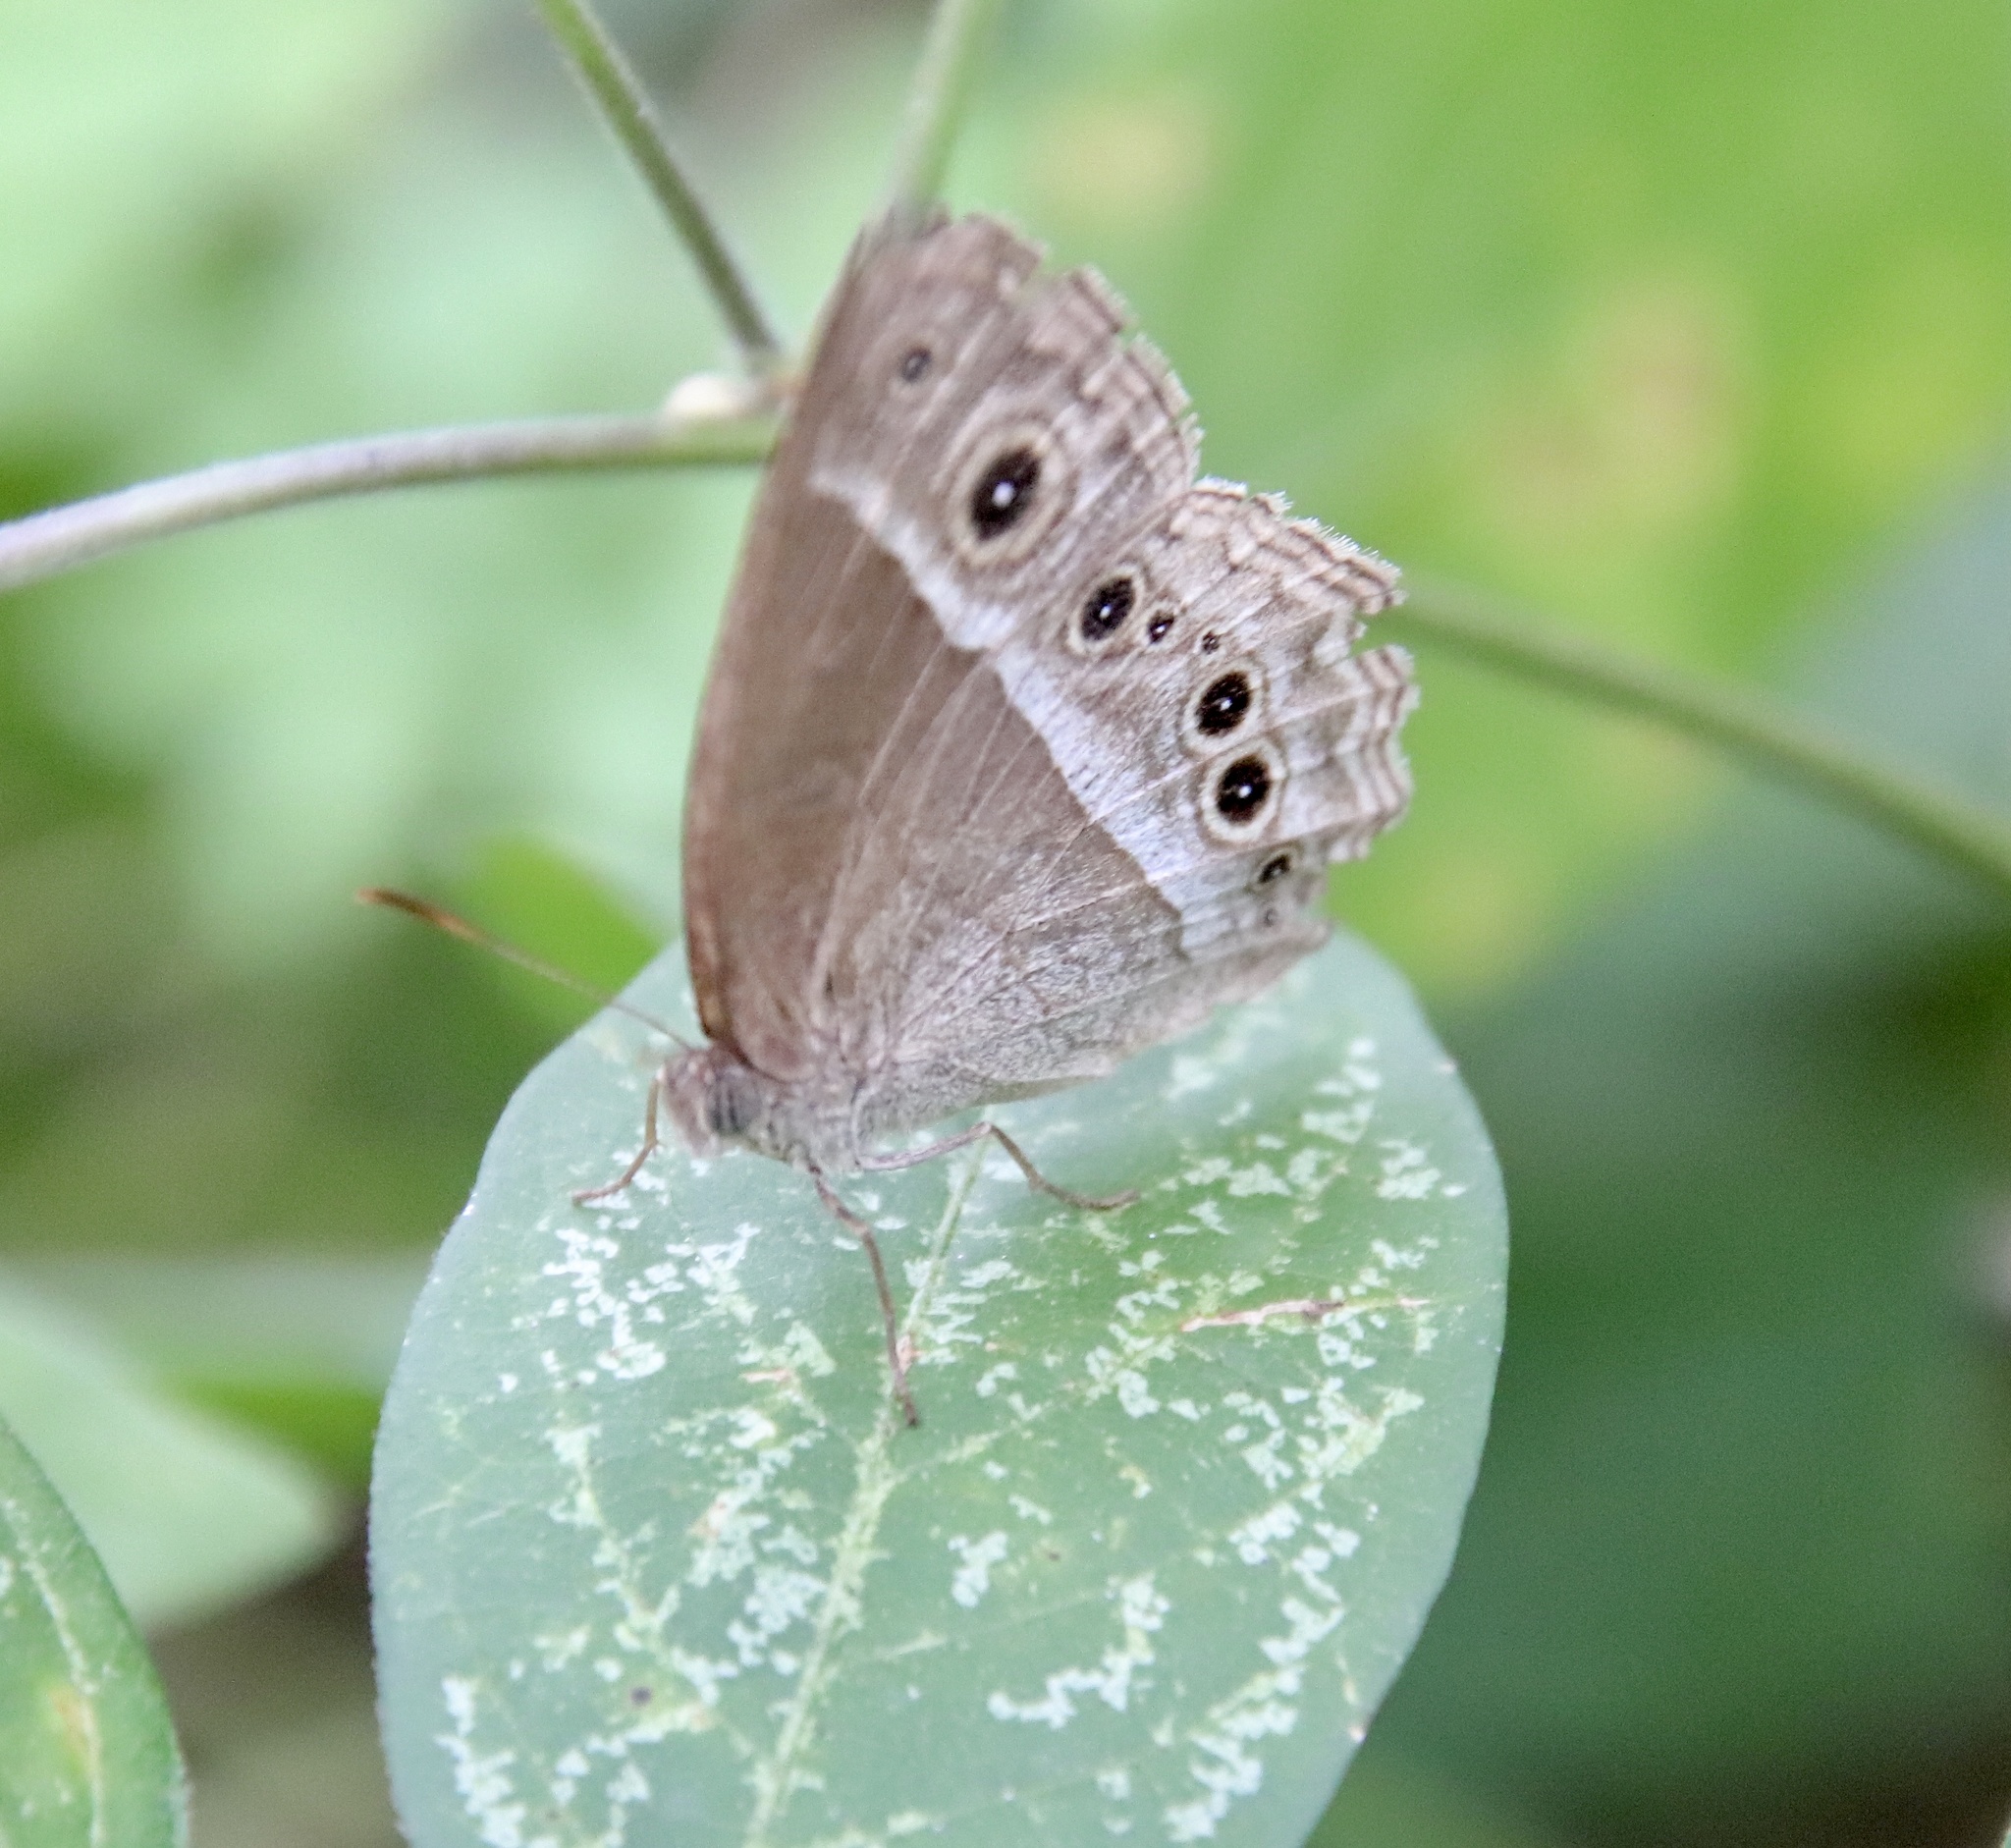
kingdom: Animalia
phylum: Arthropoda
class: Insecta
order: Lepidoptera
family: Nymphalidae
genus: Mycalesis
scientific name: Mycalesis igoleta
